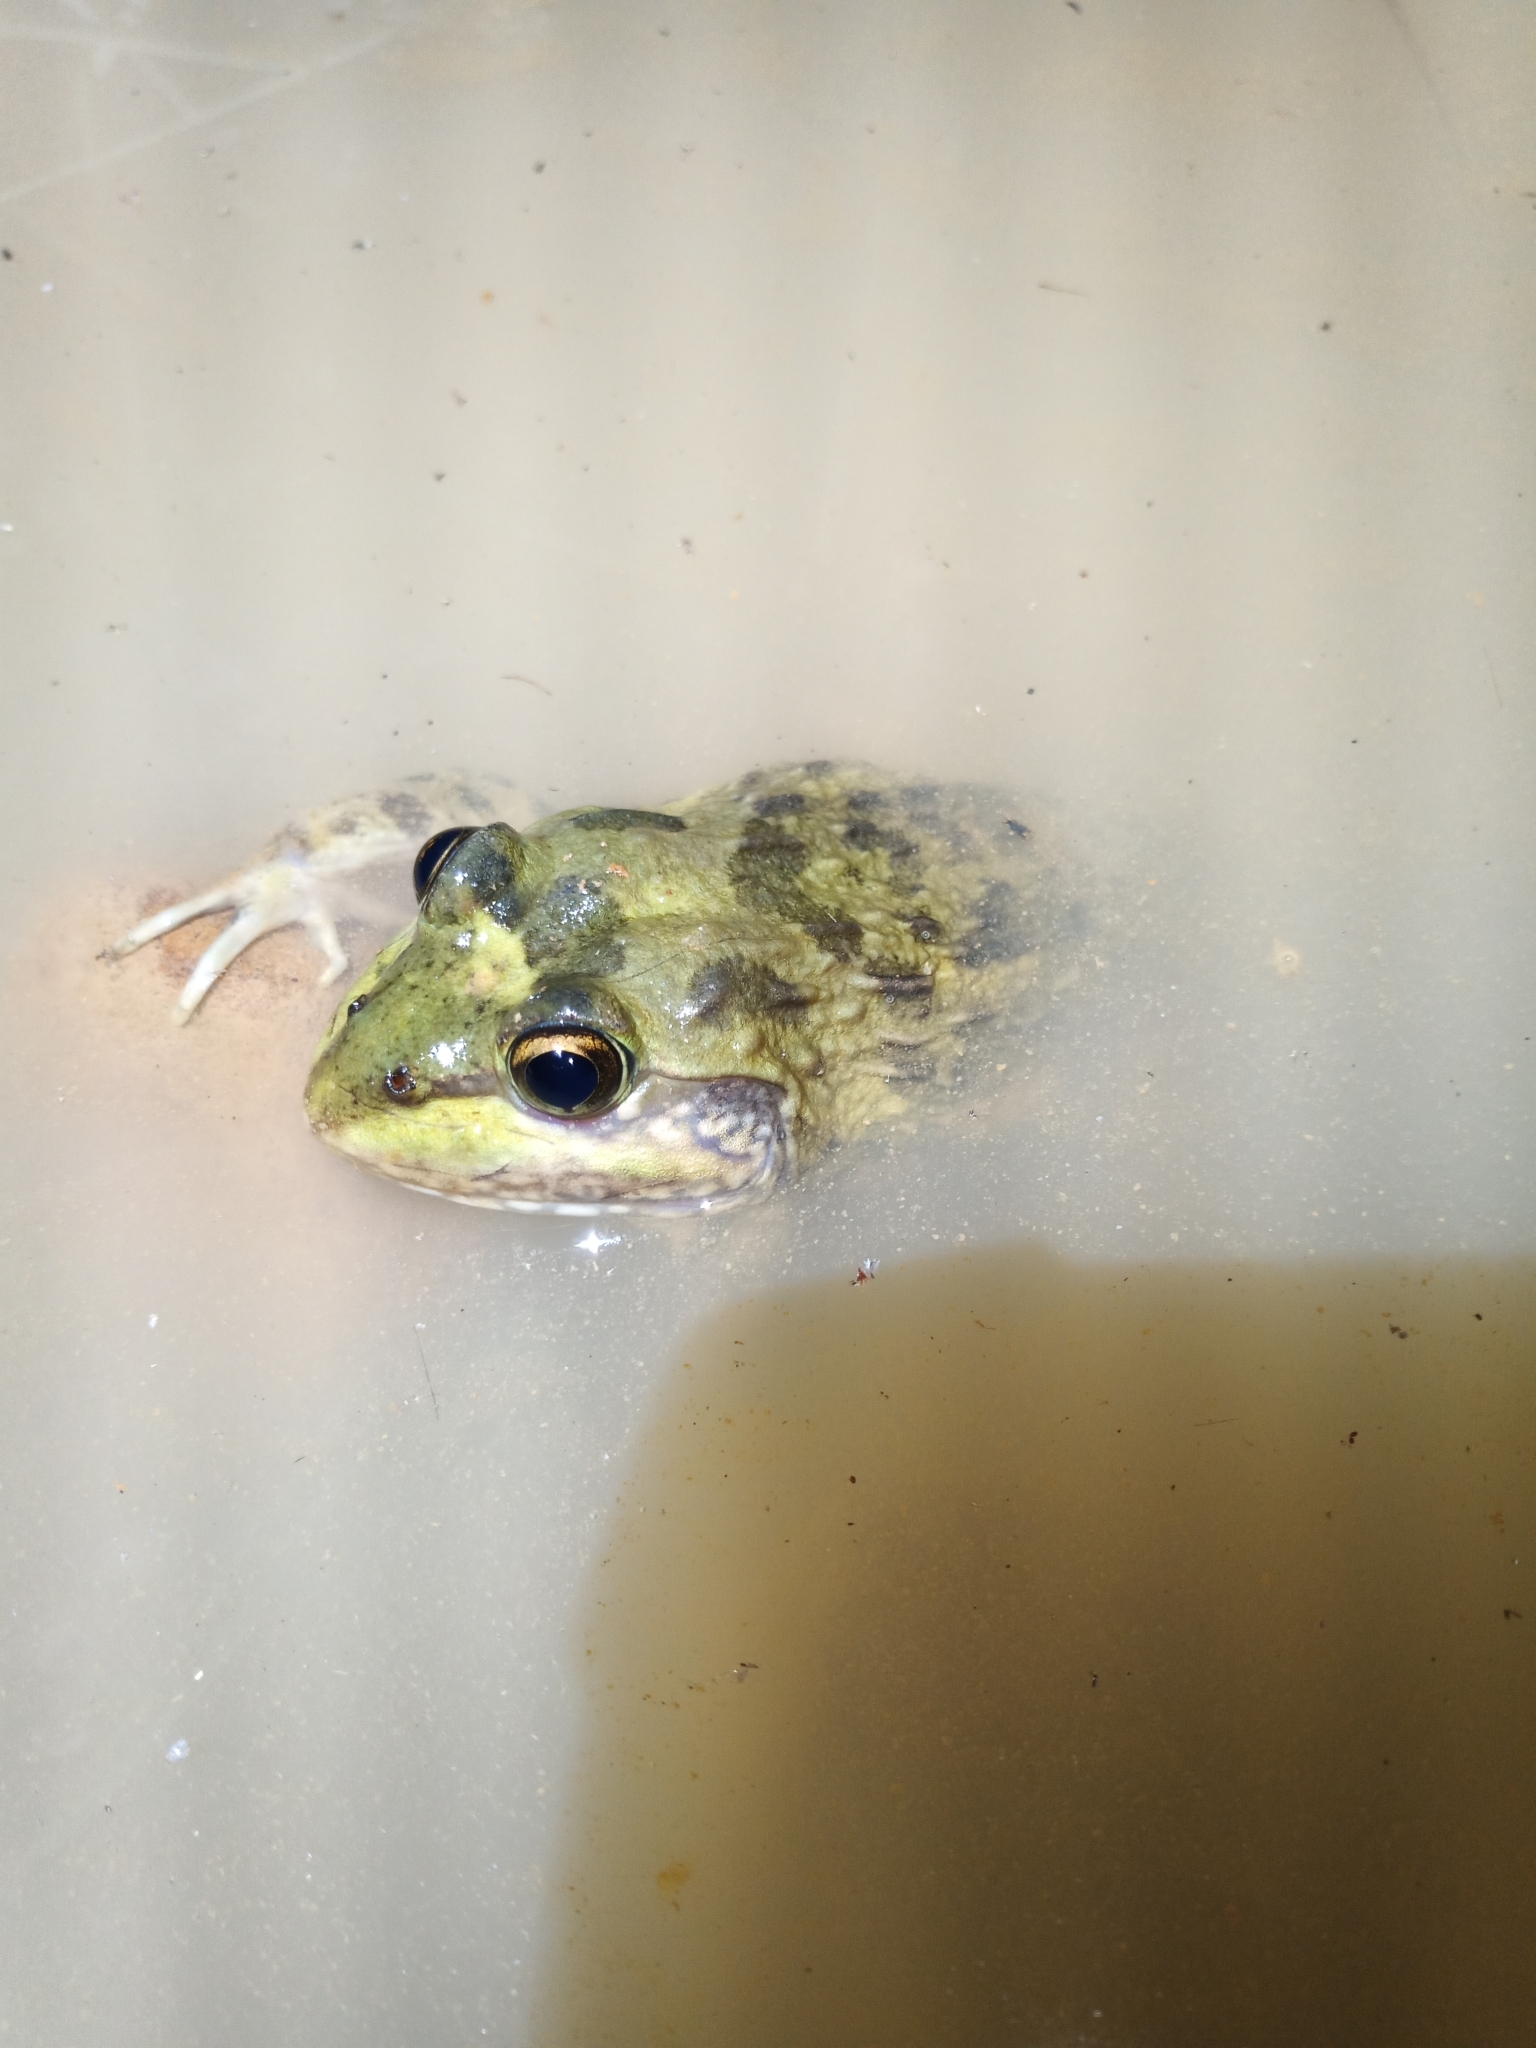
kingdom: Animalia
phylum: Chordata
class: Amphibia
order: Anura
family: Pyxicephalidae
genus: Amietia
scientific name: Amietia fuscigula
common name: Cape rana
